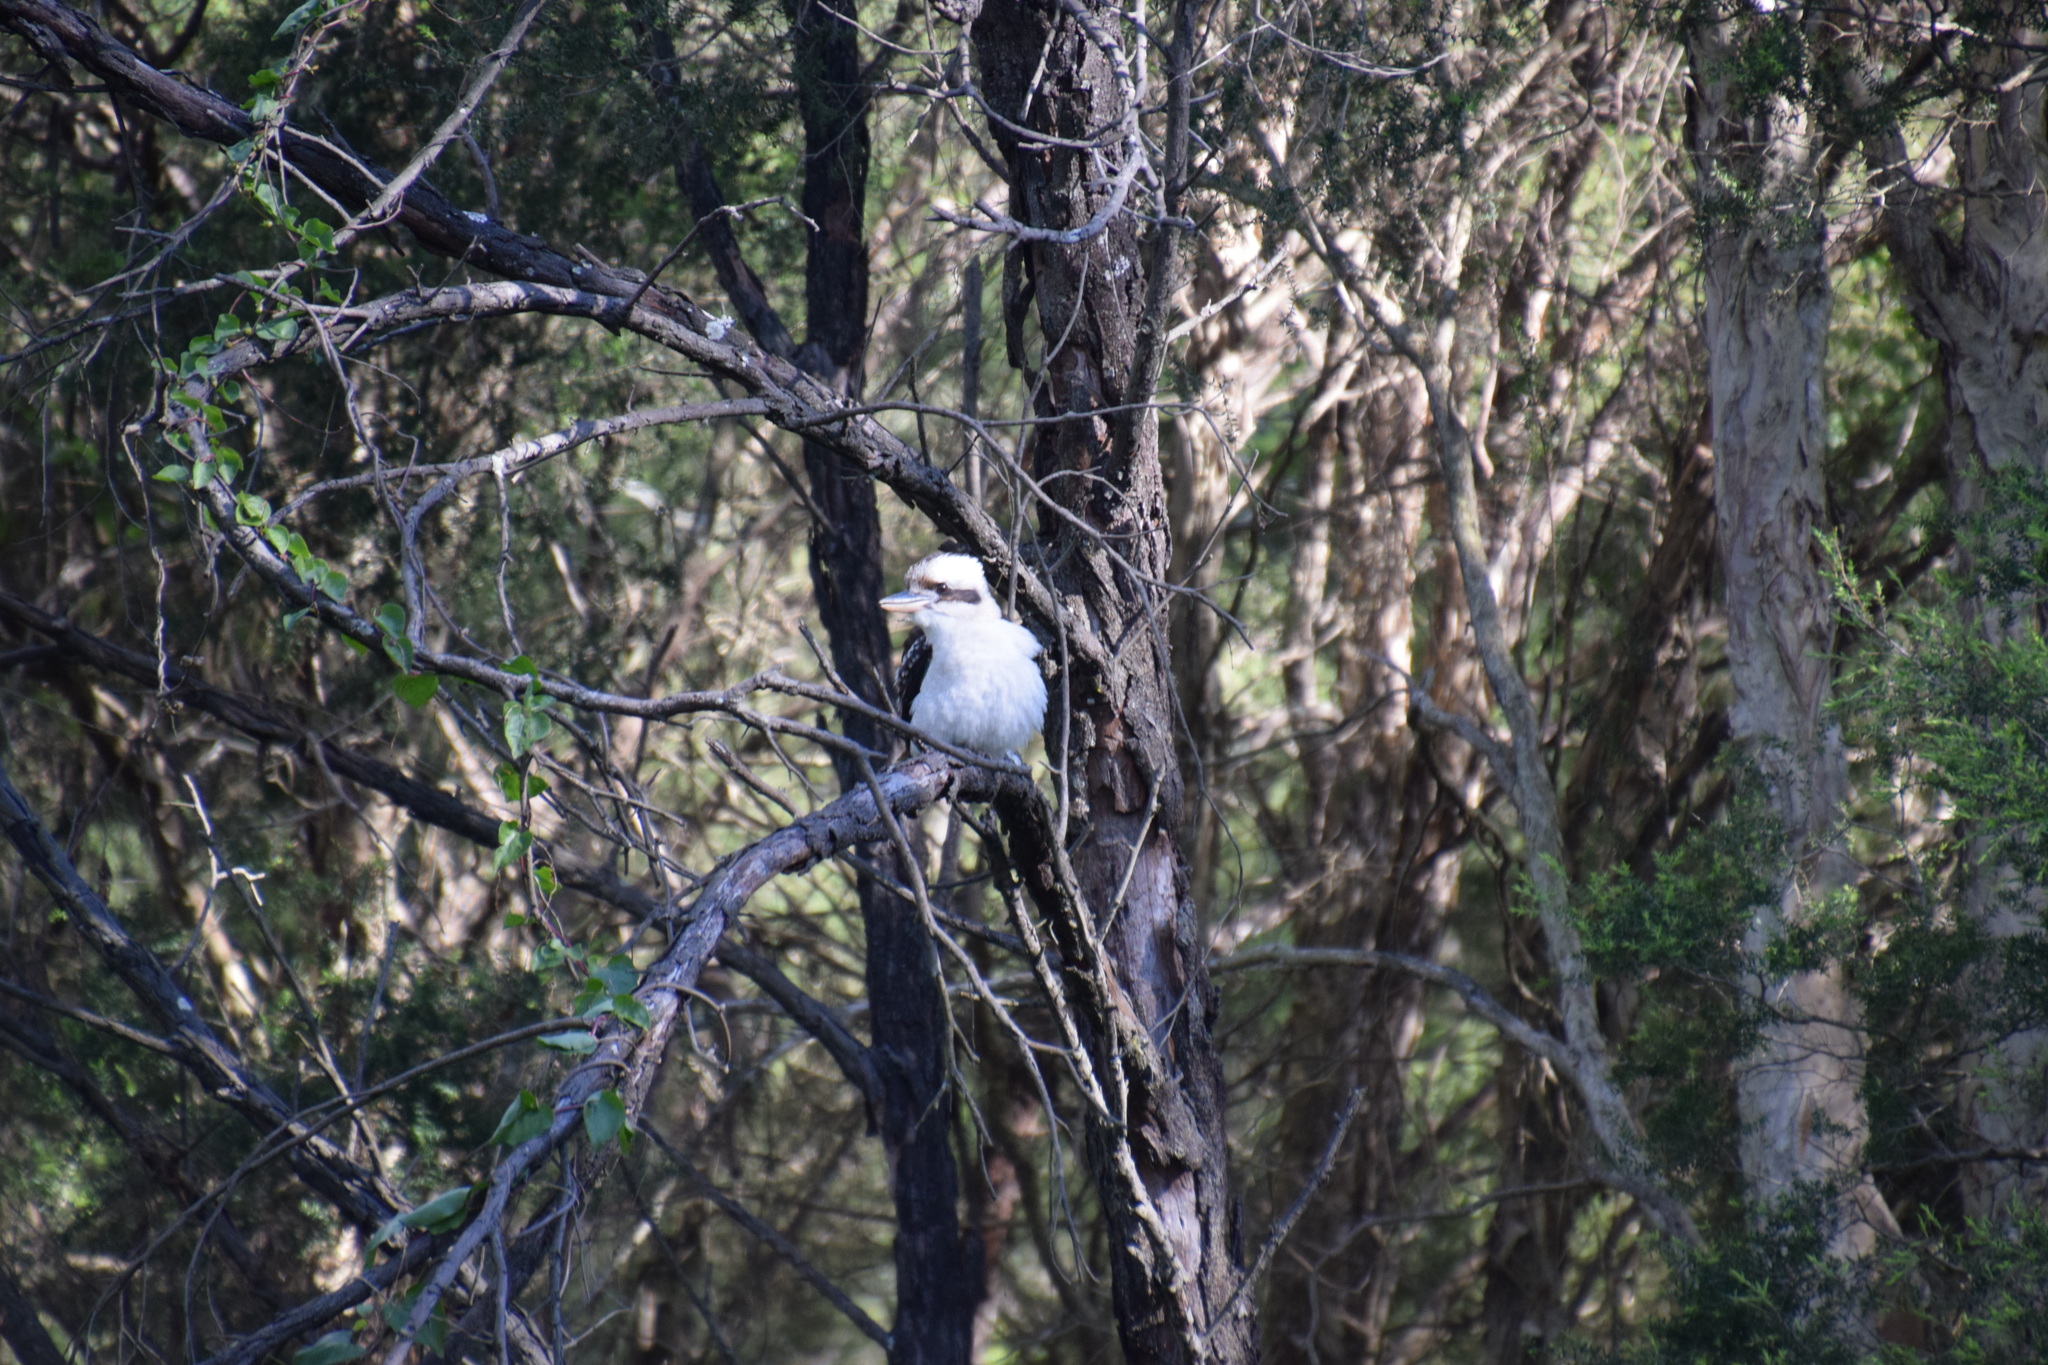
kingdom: Animalia
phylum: Chordata
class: Aves
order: Coraciiformes
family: Alcedinidae
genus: Dacelo
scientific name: Dacelo novaeguineae
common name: Laughing kookaburra
